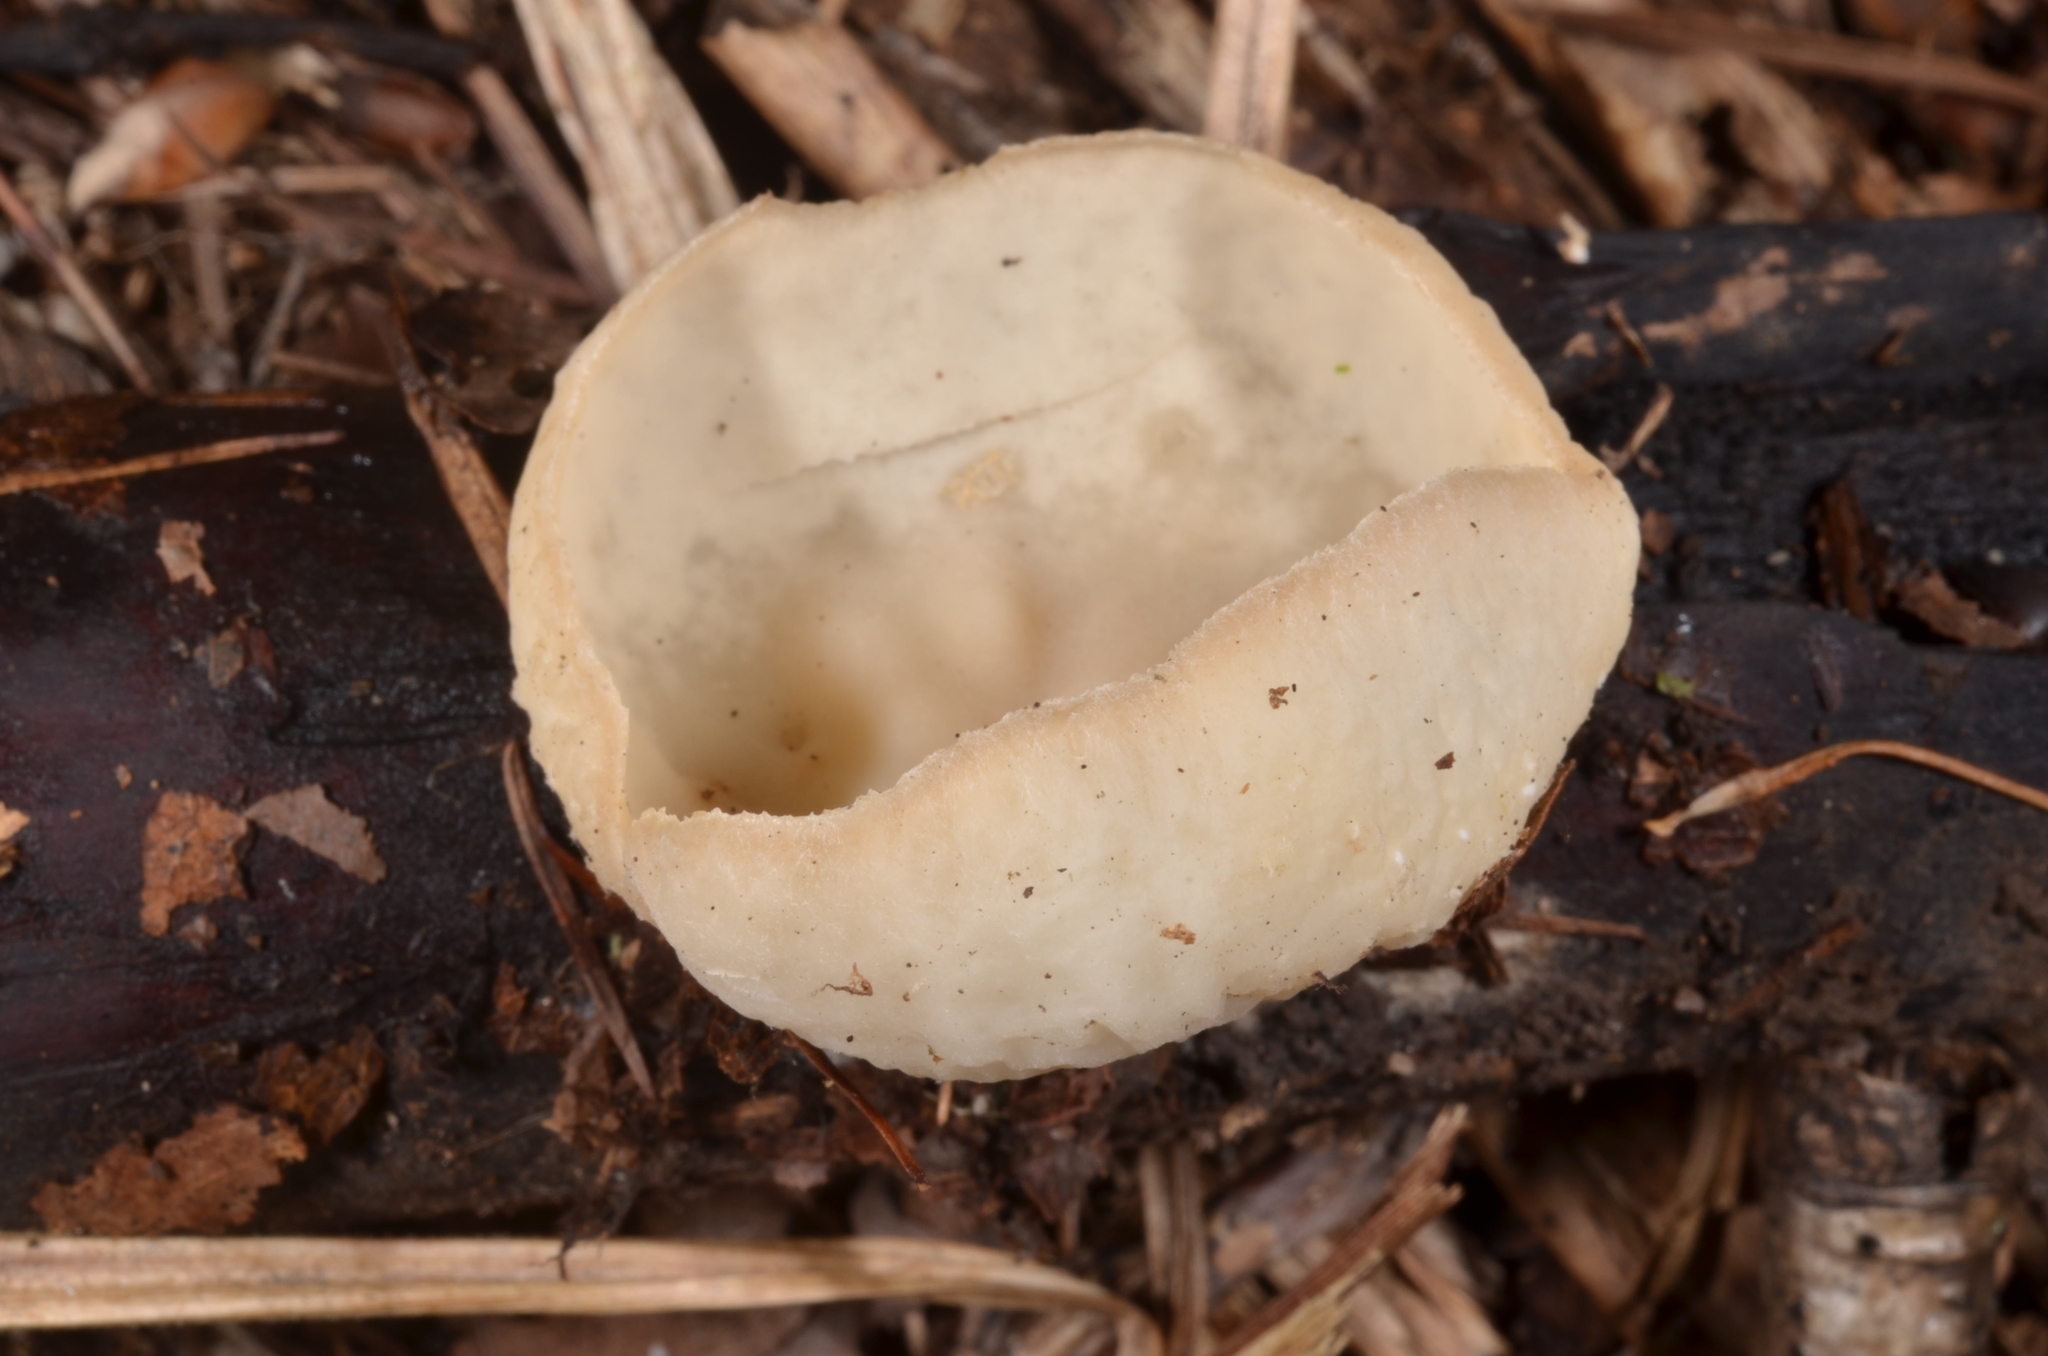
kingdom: Fungi
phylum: Ascomycota
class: Pezizomycetes
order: Pezizales
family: Sarcoscyphaceae
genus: Sarcoscypha
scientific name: Sarcoscypha vassiljevae
